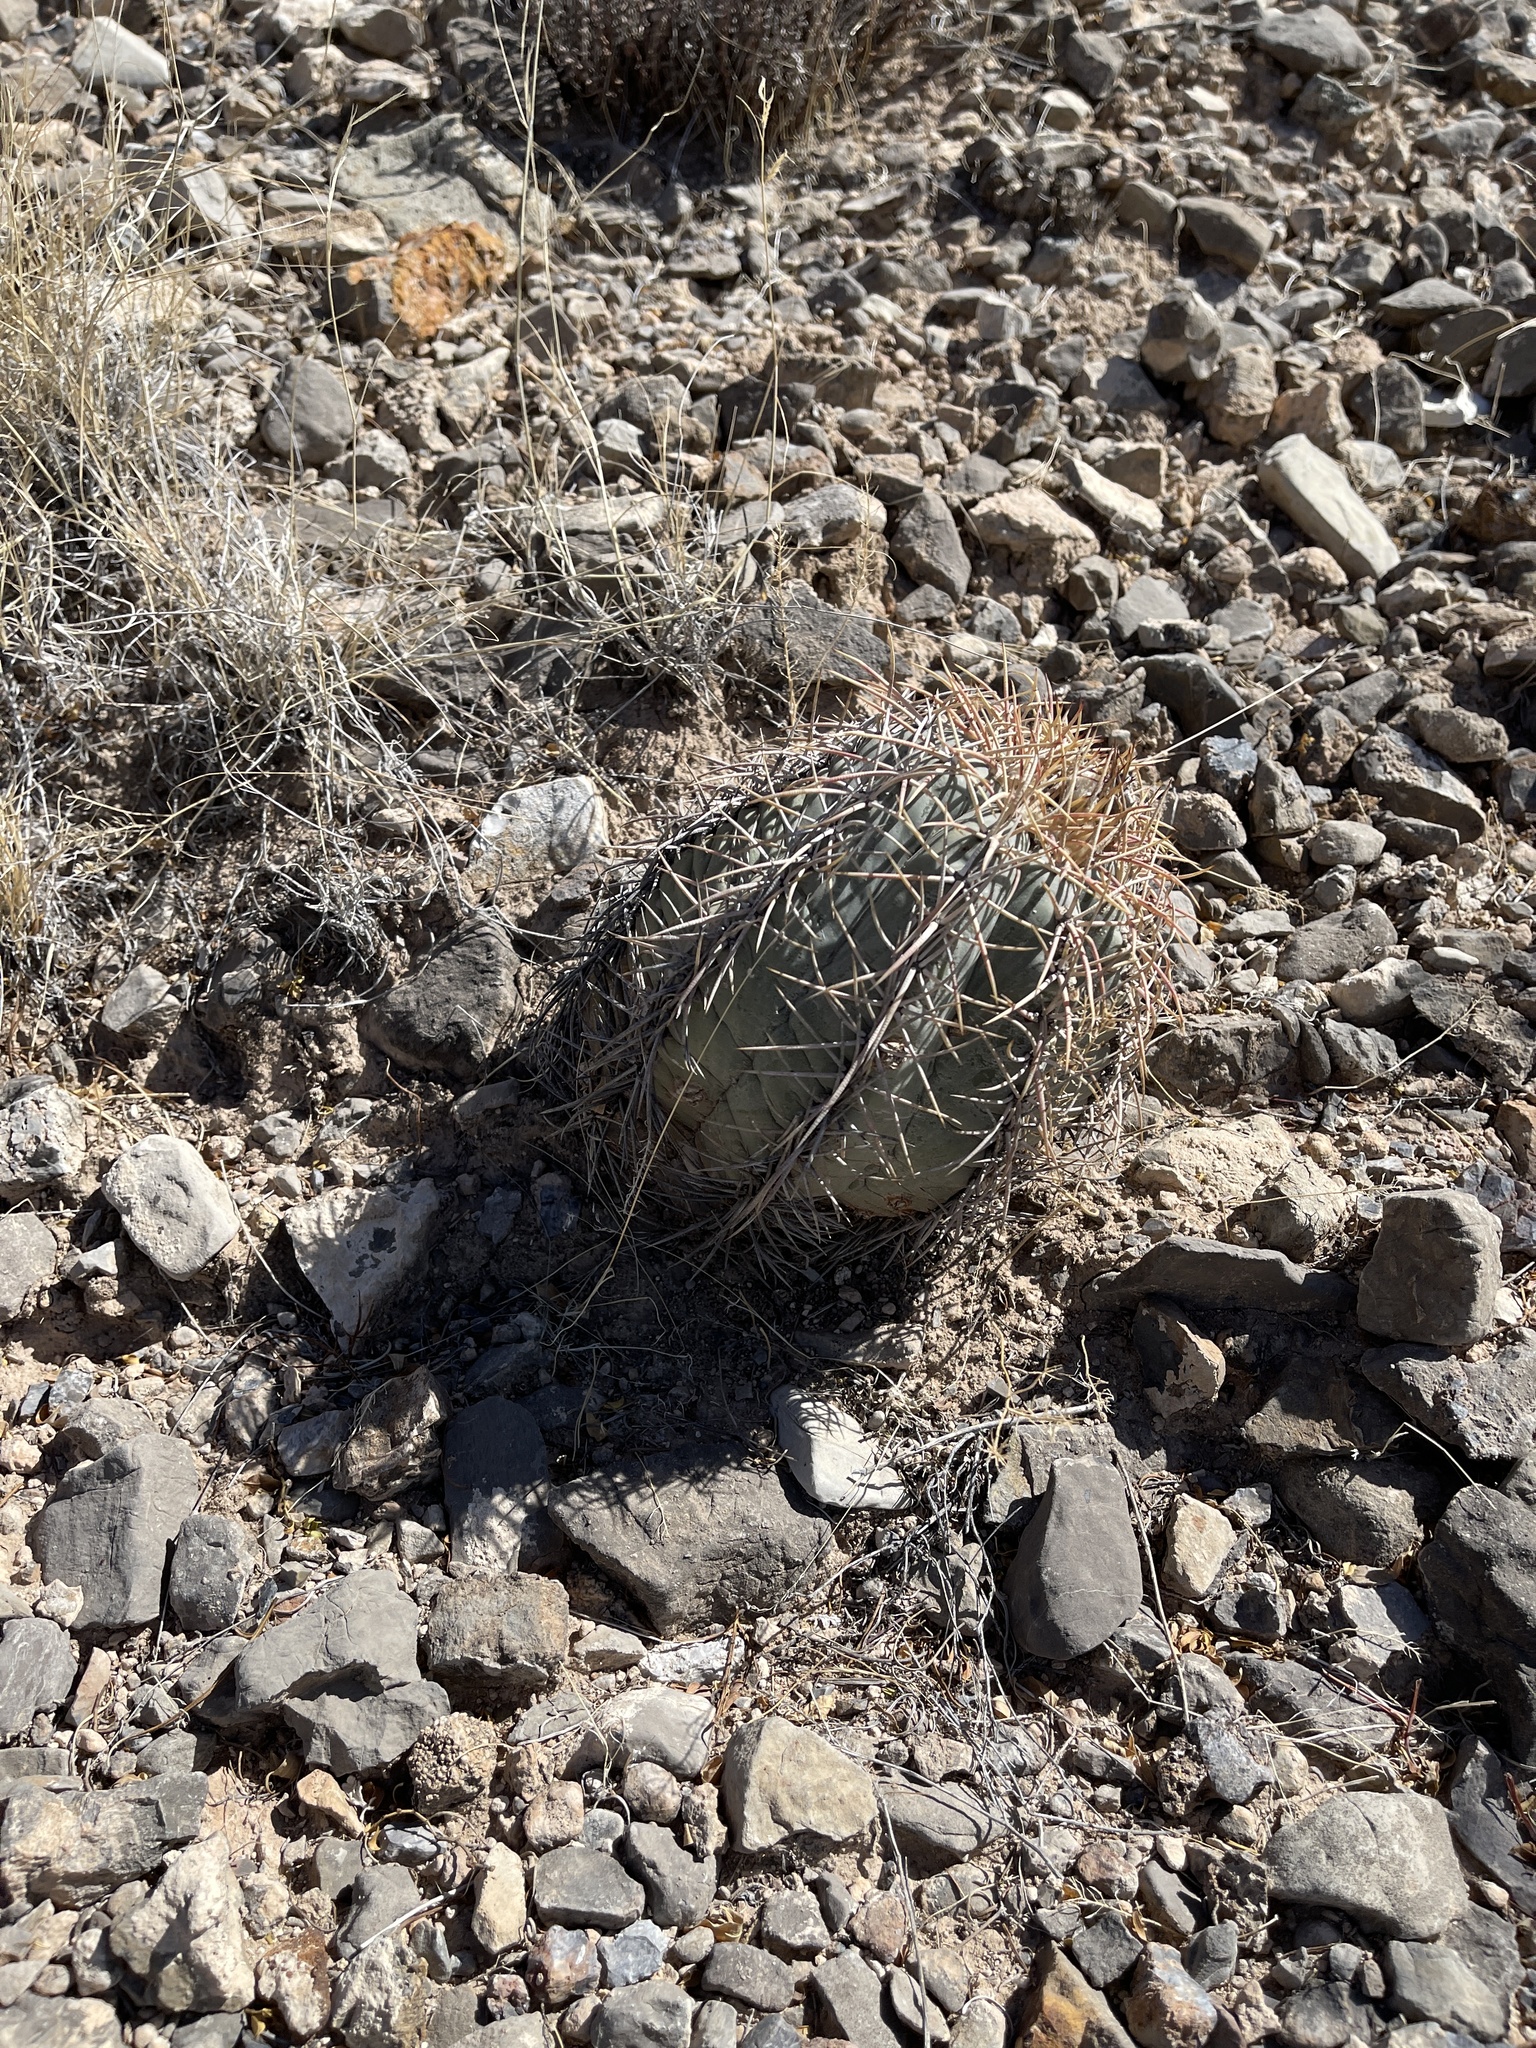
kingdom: Plantae
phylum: Tracheophyta
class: Magnoliopsida
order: Caryophyllales
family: Cactaceae
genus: Echinocactus
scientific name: Echinocactus horizonthalonius
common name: Devilshead
